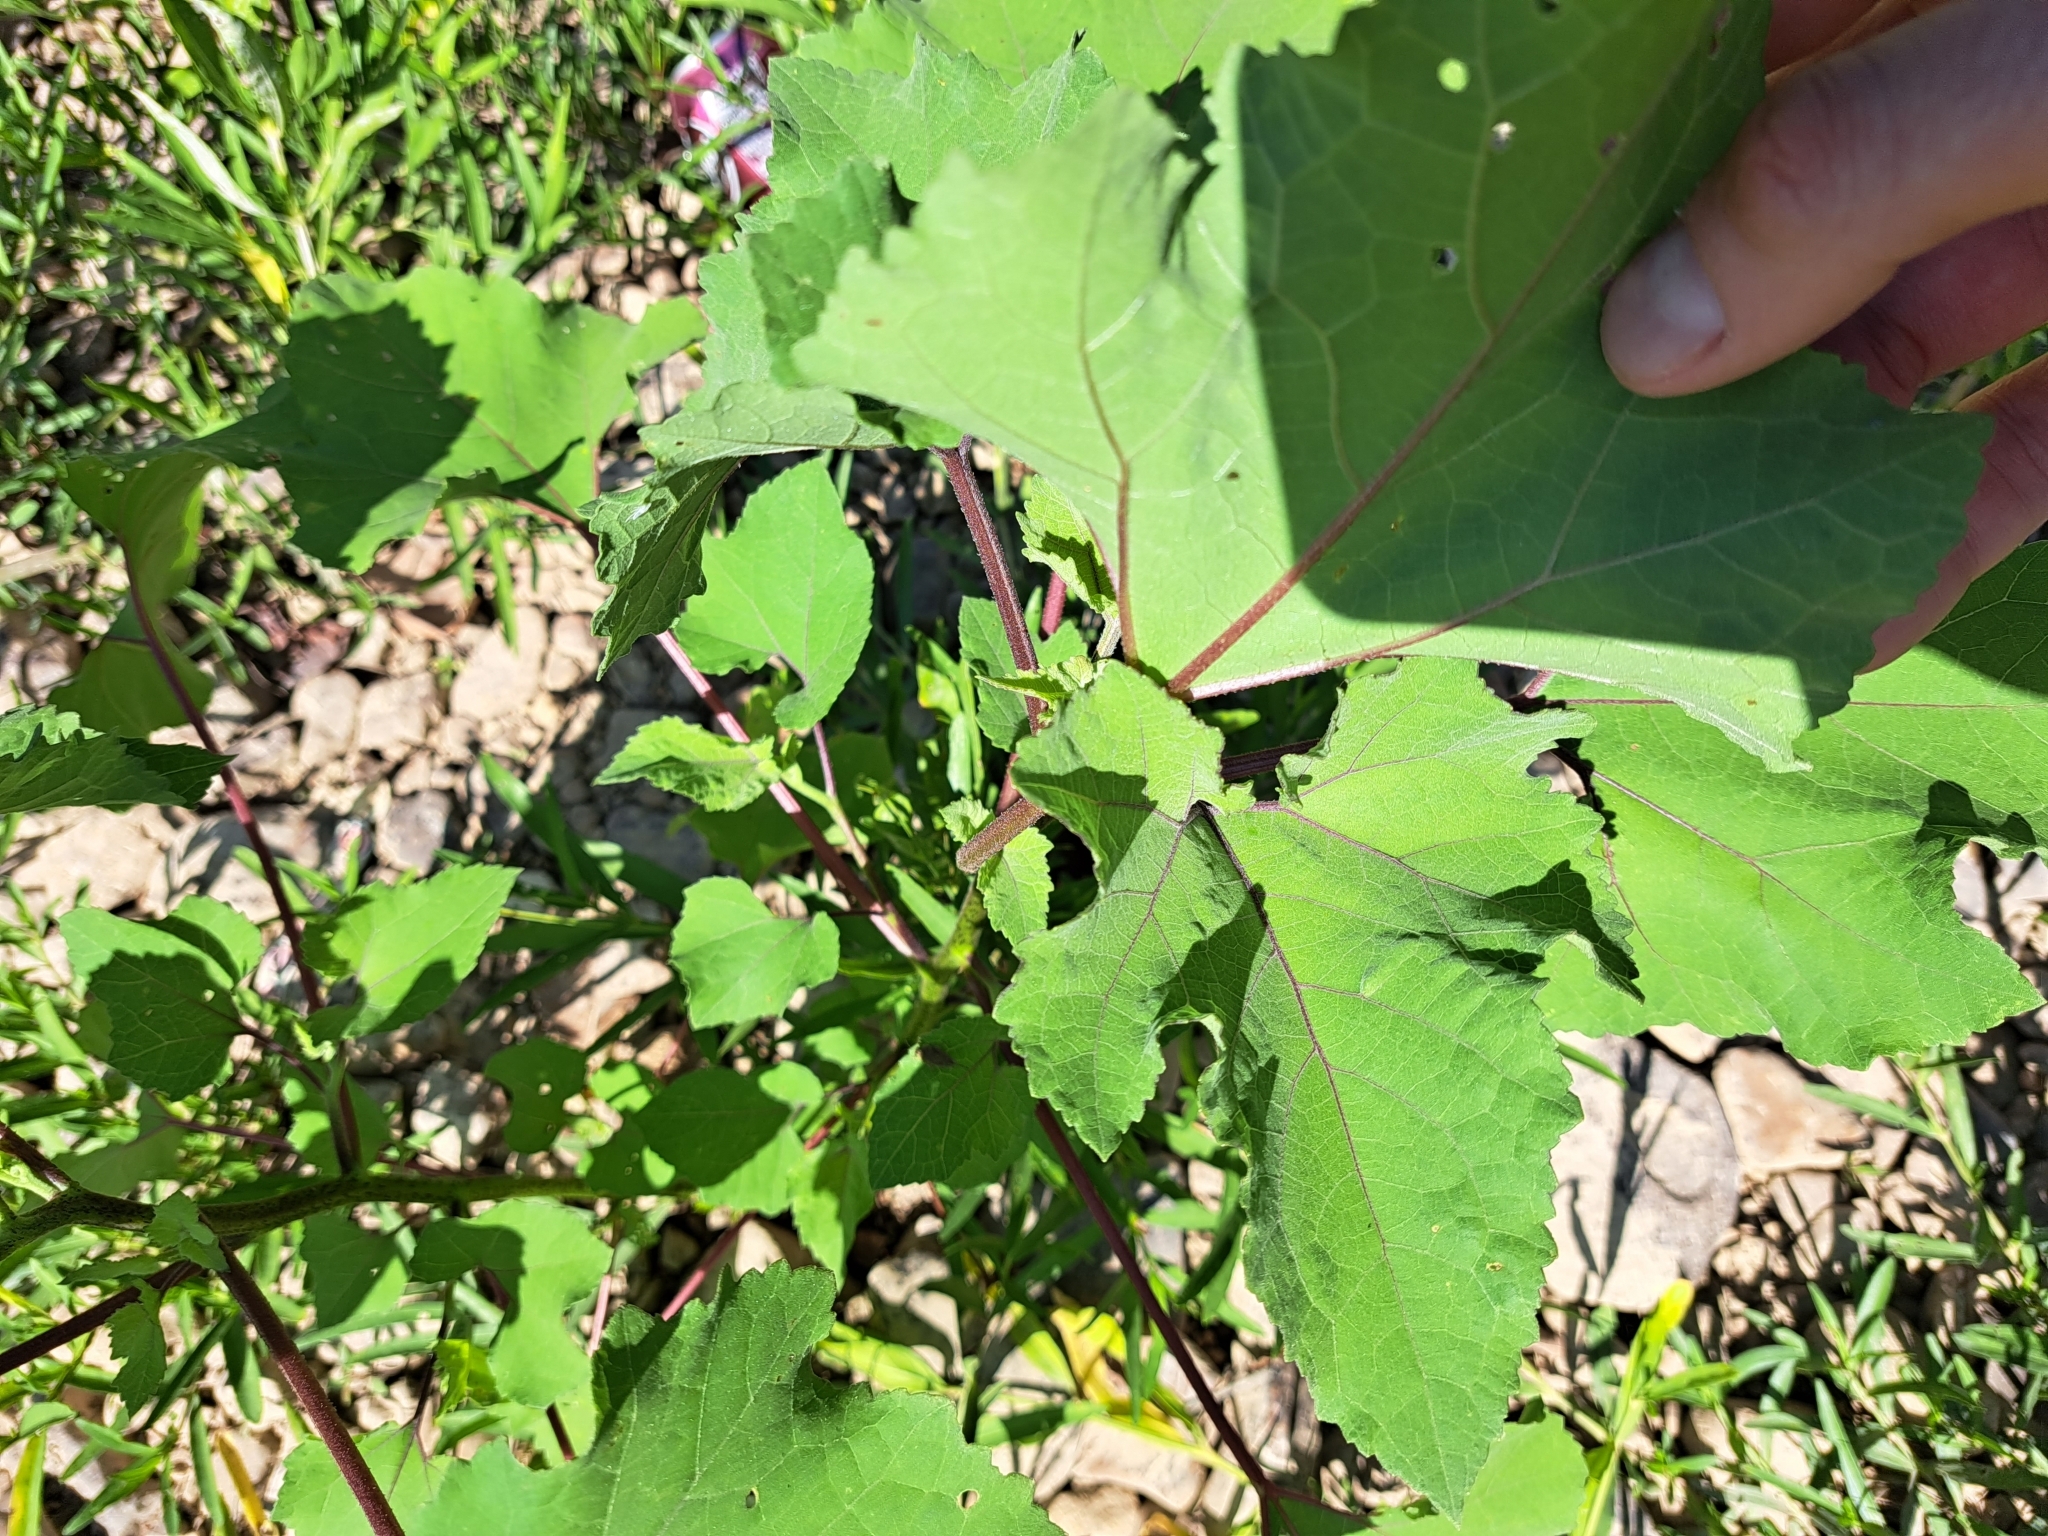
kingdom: Plantae
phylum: Tracheophyta
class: Magnoliopsida
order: Asterales
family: Asteraceae
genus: Xanthium
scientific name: Xanthium strumarium
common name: Rough cocklebur
